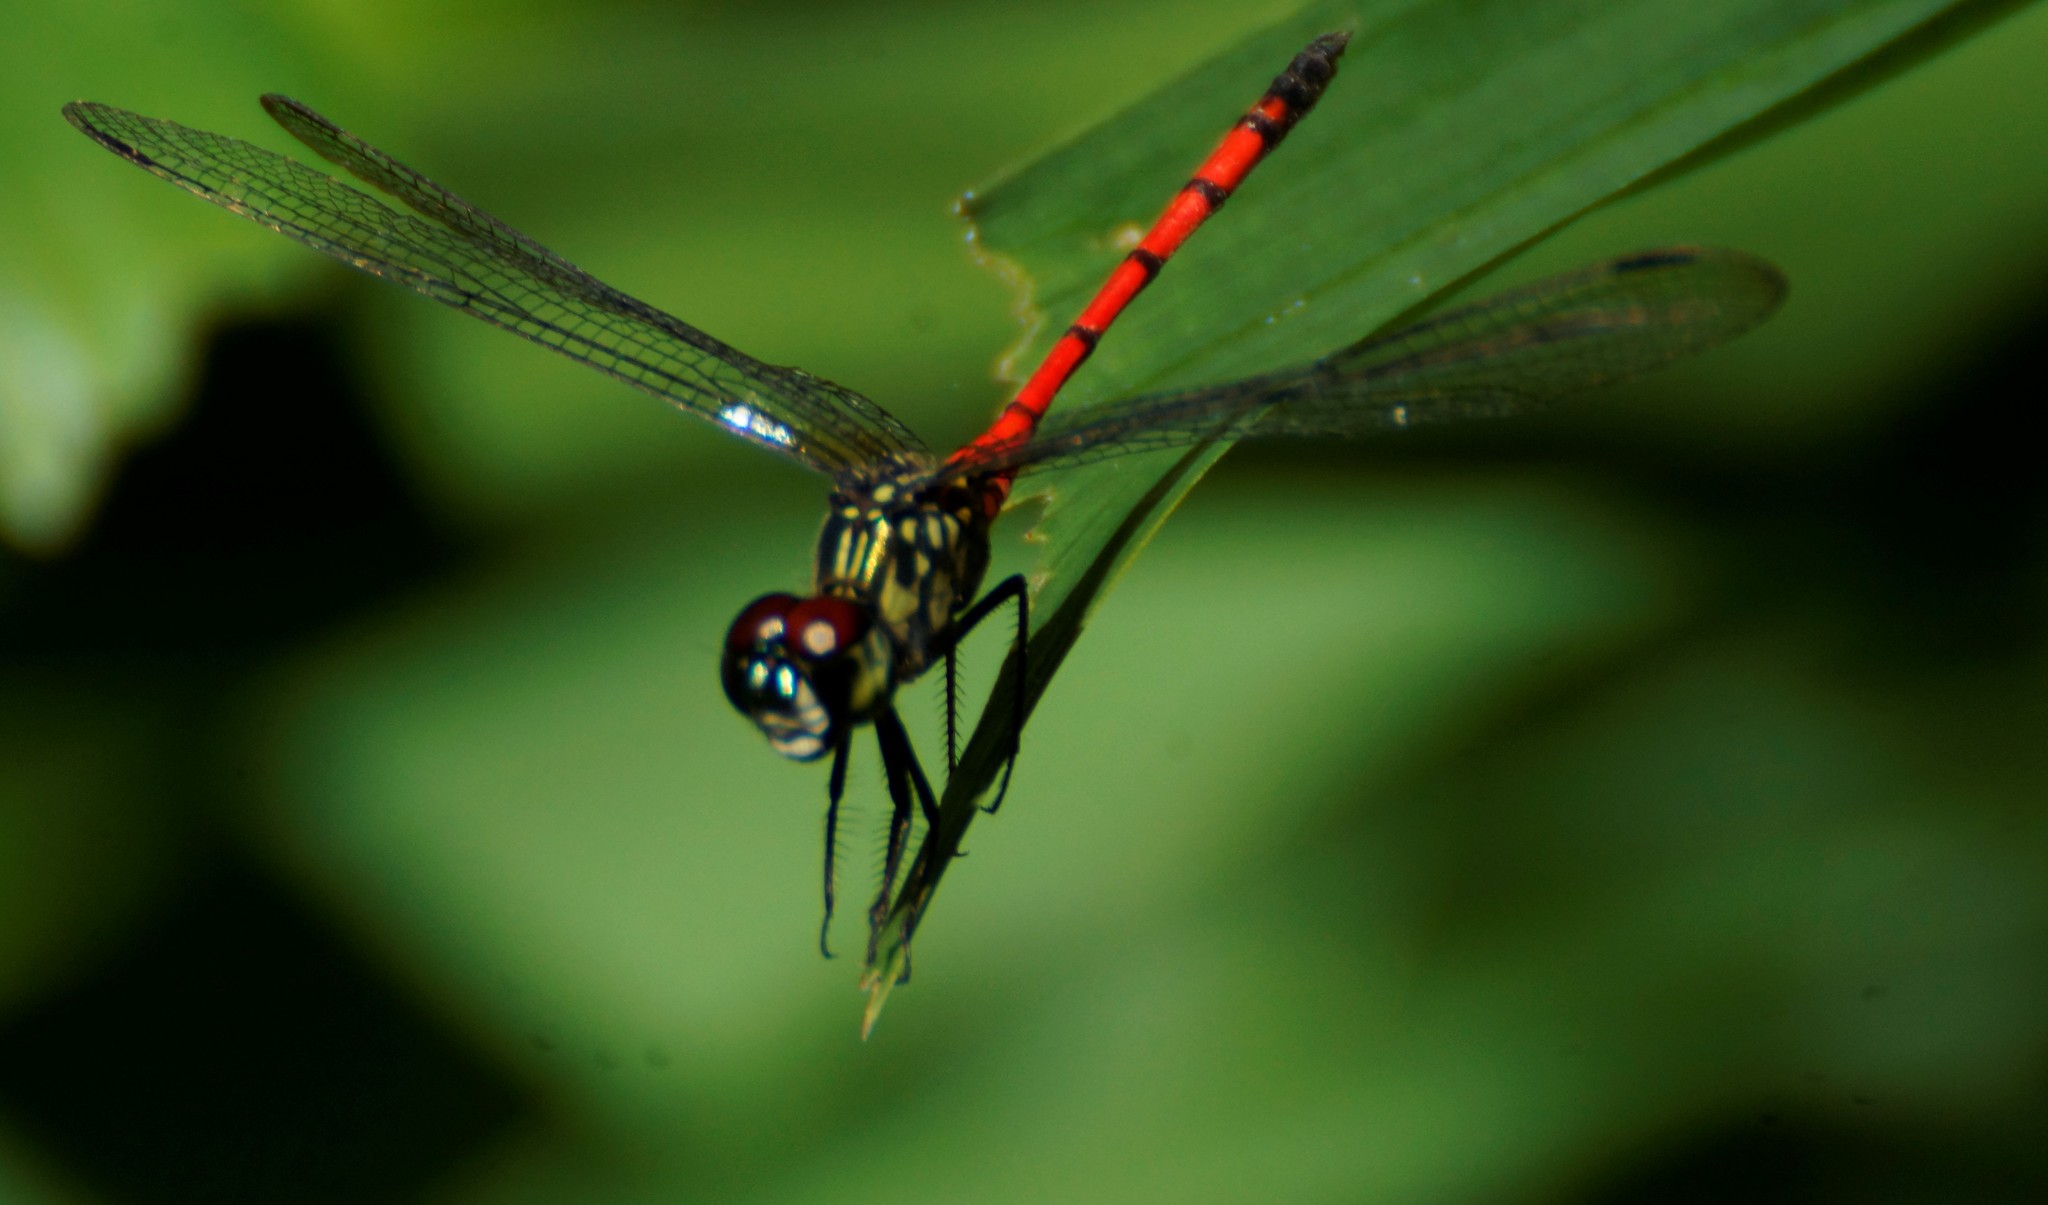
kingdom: Animalia
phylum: Arthropoda
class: Insecta
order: Odonata
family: Libellulidae
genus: Agrionoptera
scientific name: Agrionoptera insignis
